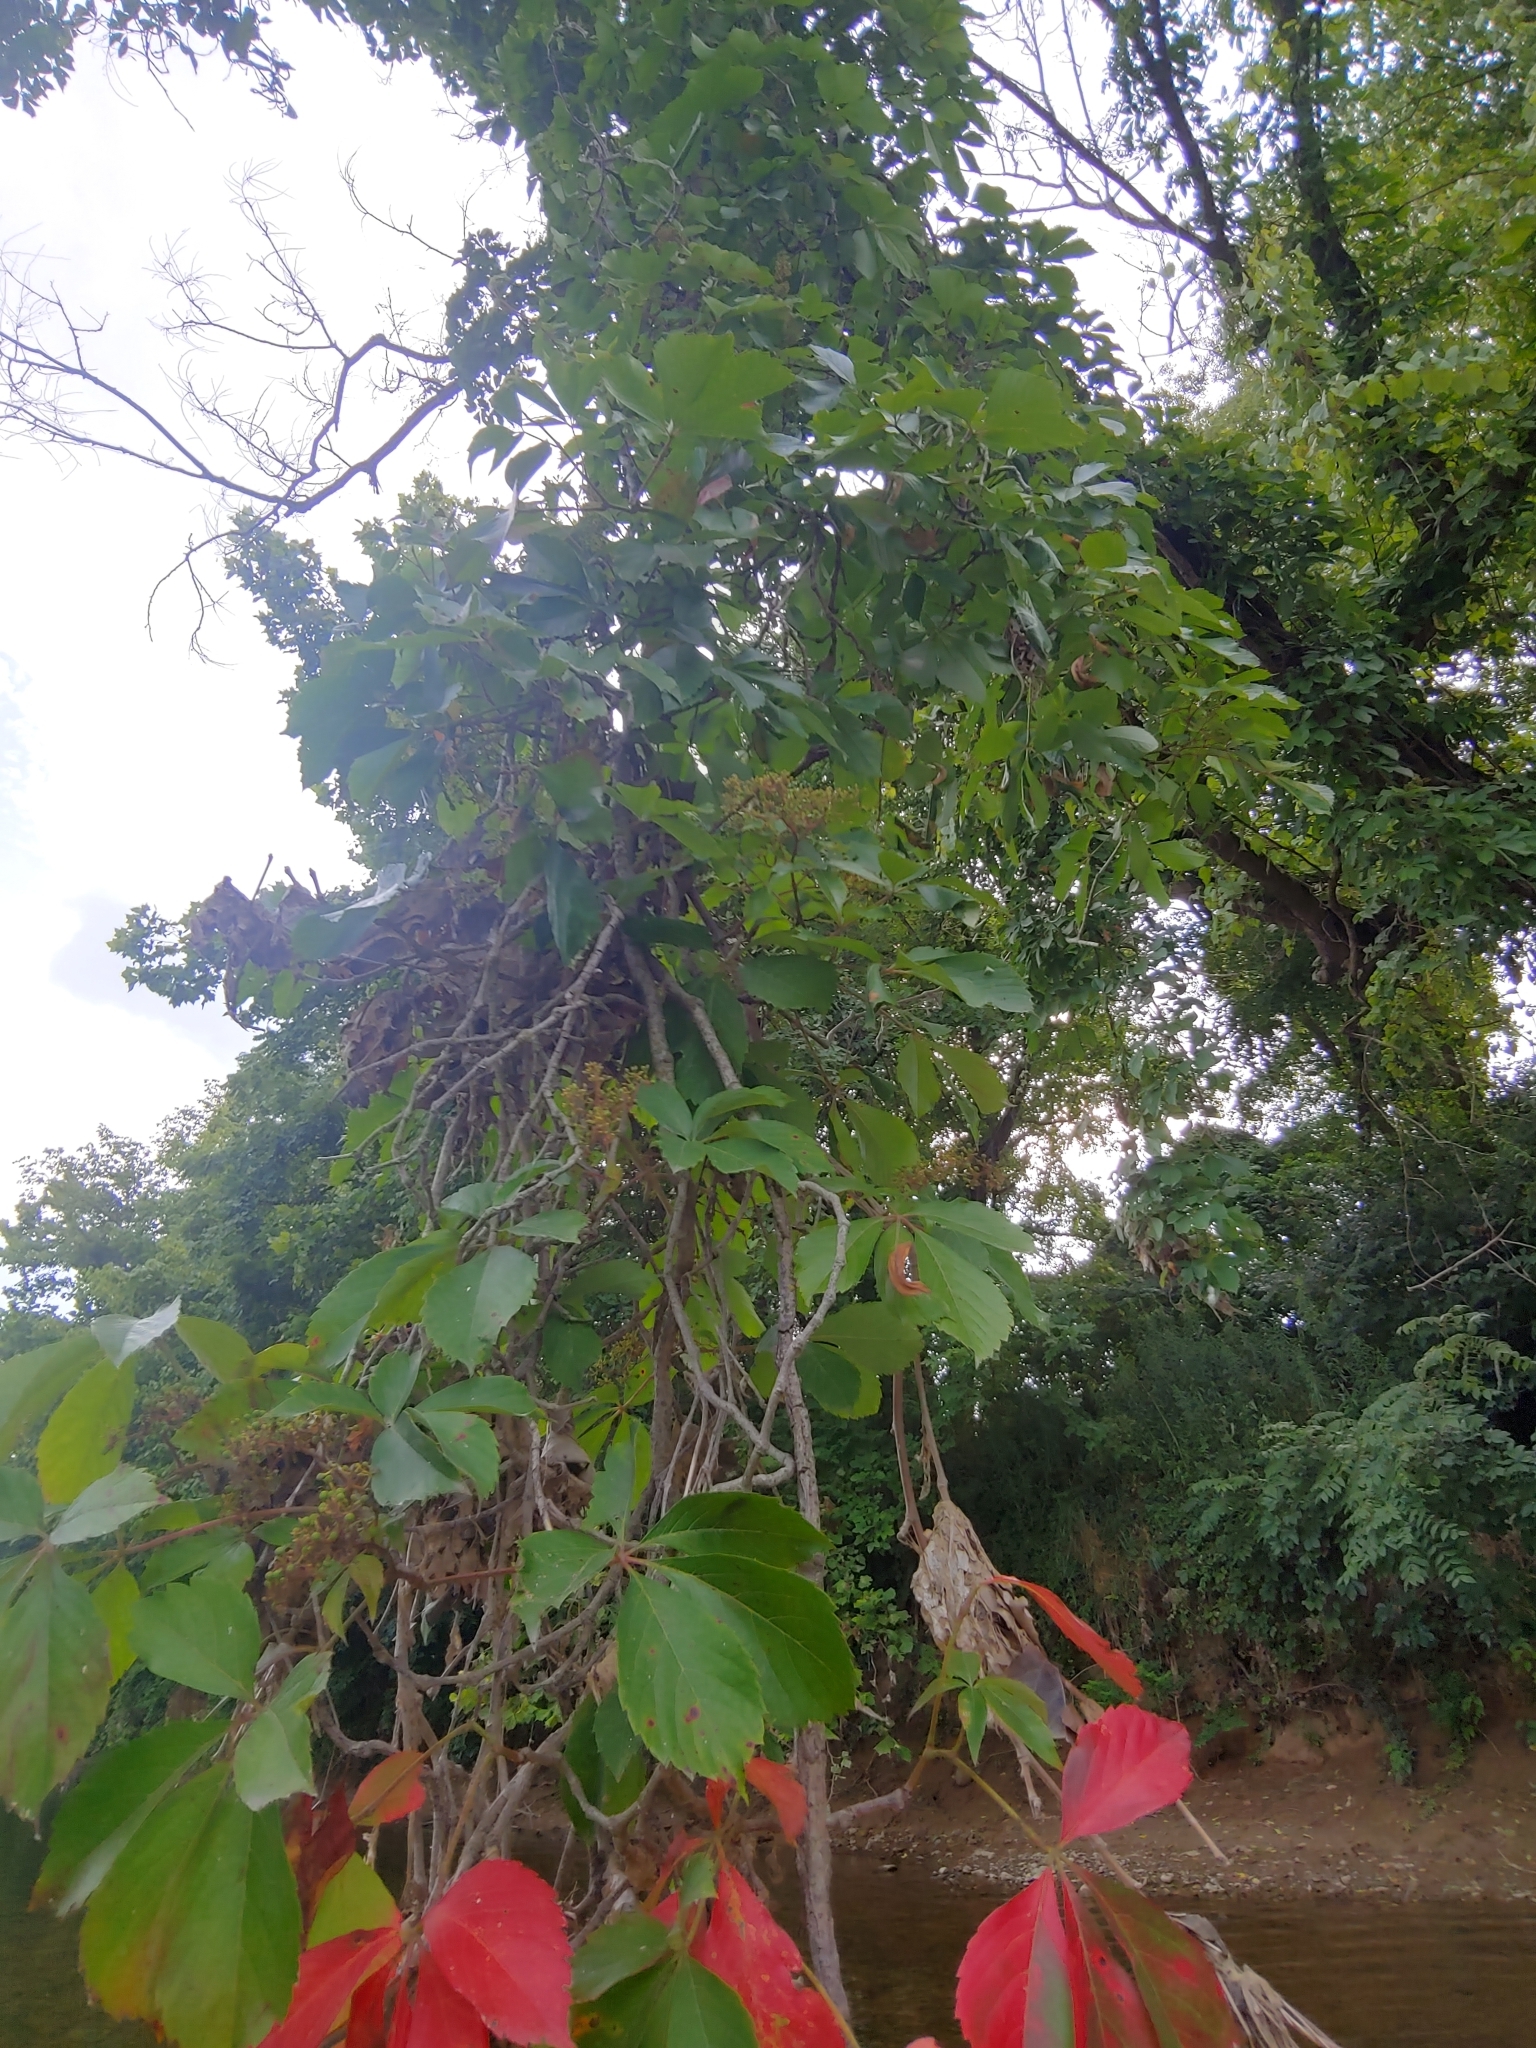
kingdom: Plantae
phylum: Tracheophyta
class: Magnoliopsida
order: Vitales
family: Vitaceae
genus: Parthenocissus
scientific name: Parthenocissus quinquefolia
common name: Virginia-creeper
